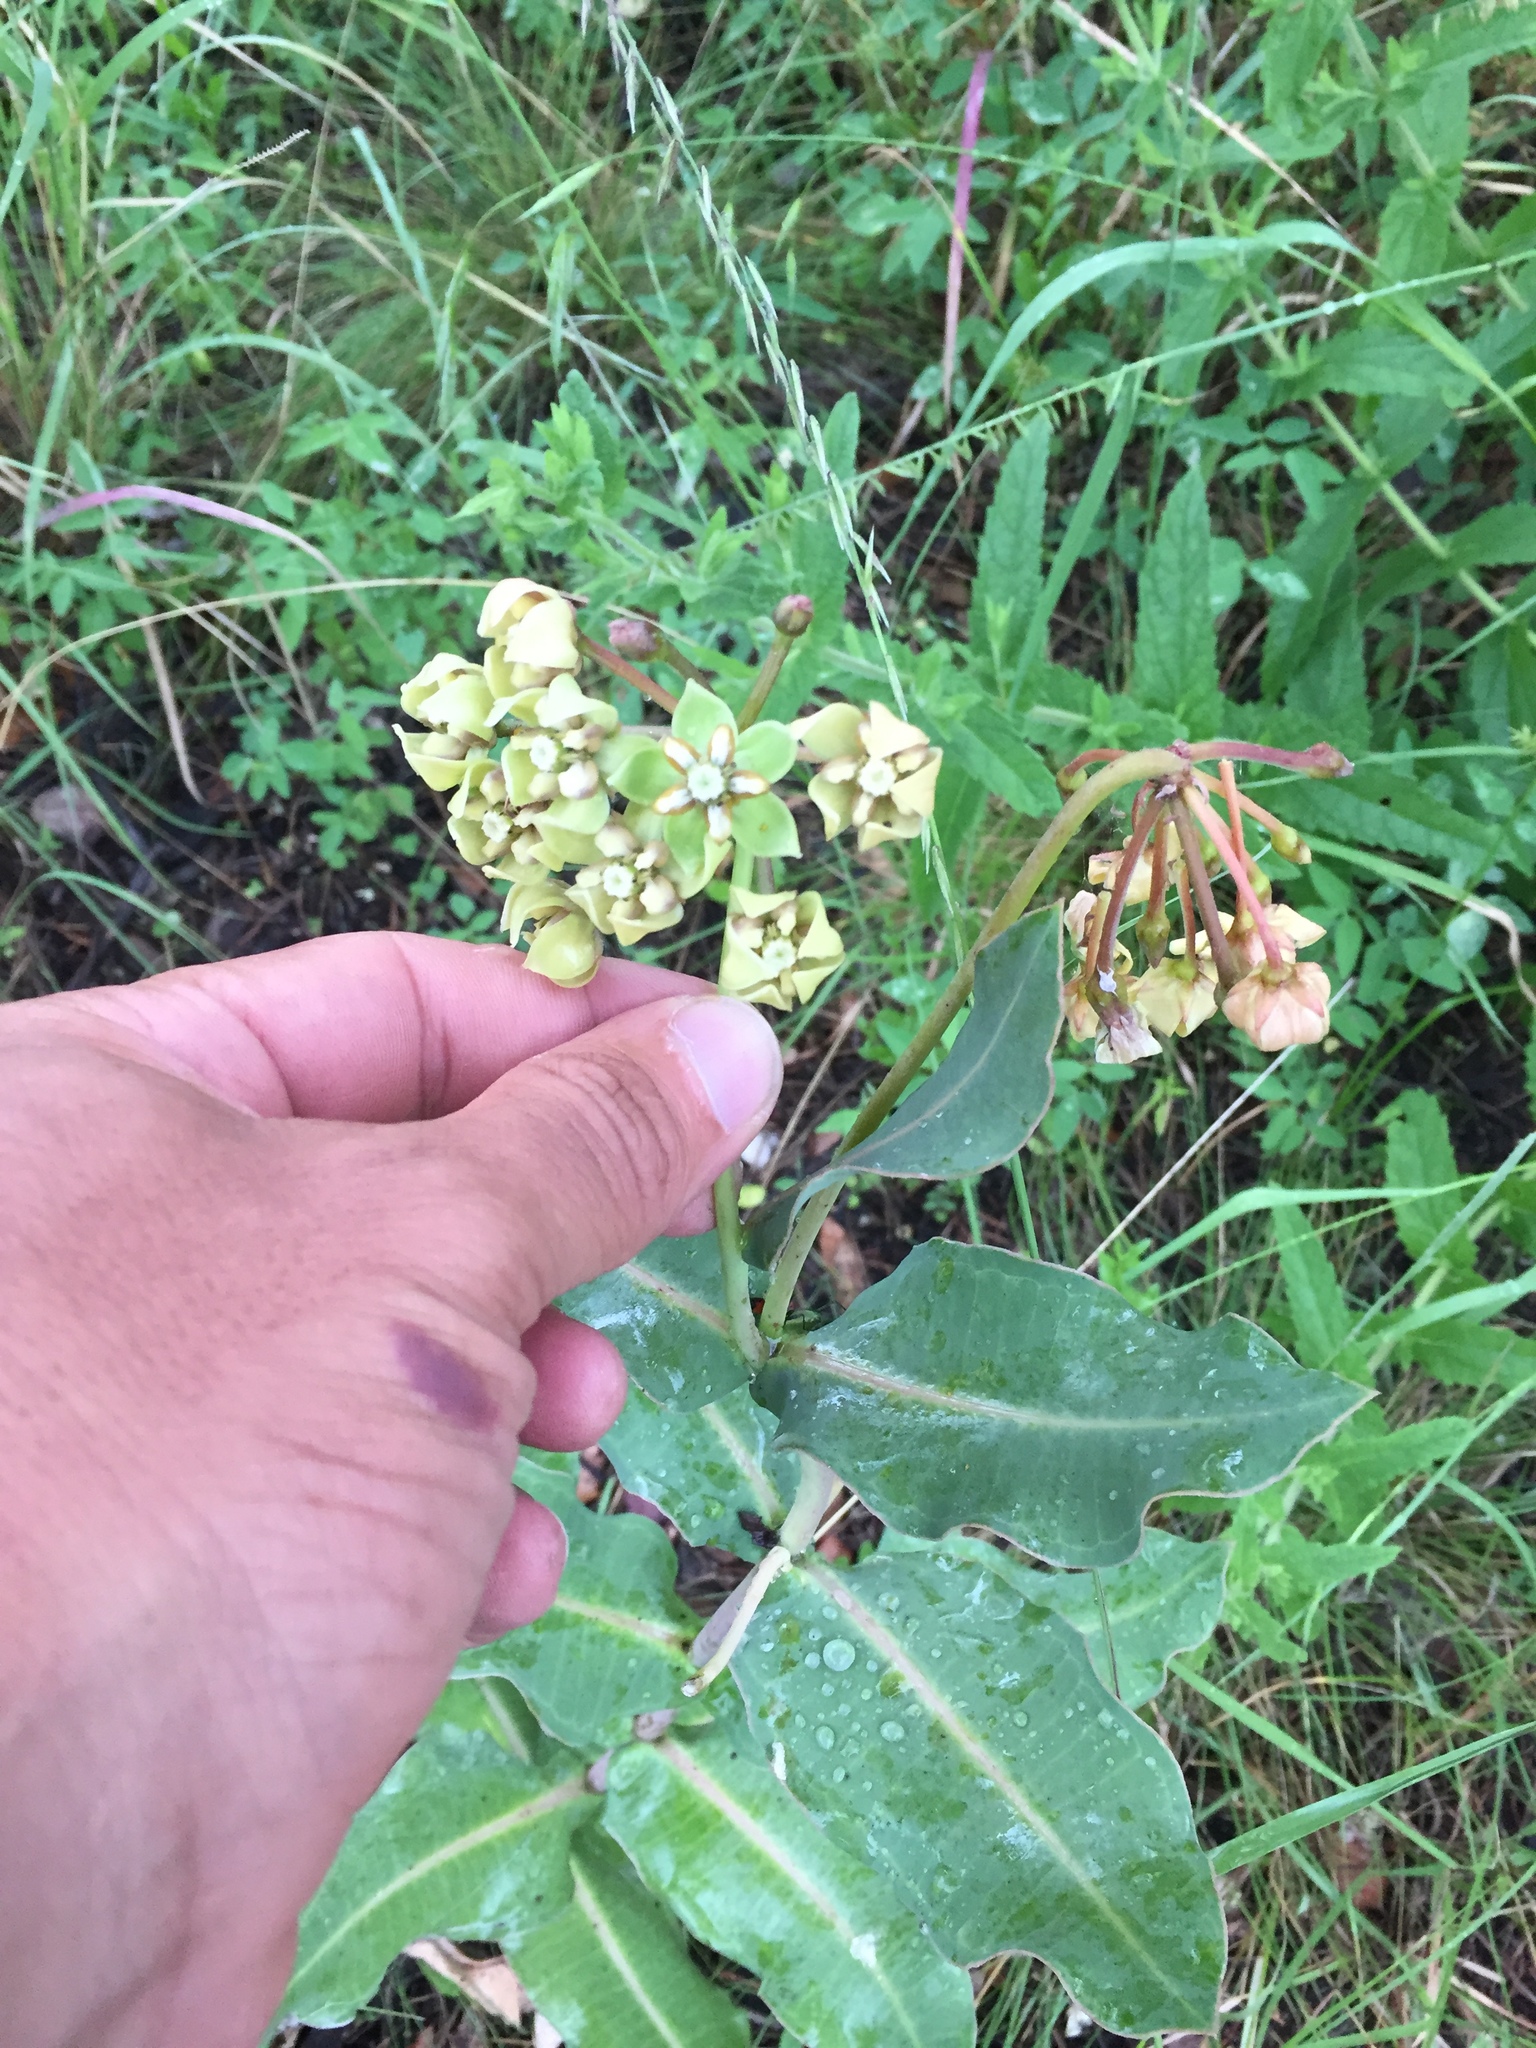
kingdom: Plantae
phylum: Tracheophyta
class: Magnoliopsida
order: Gentianales
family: Apocynaceae
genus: Asclepias
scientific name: Asclepias elata
